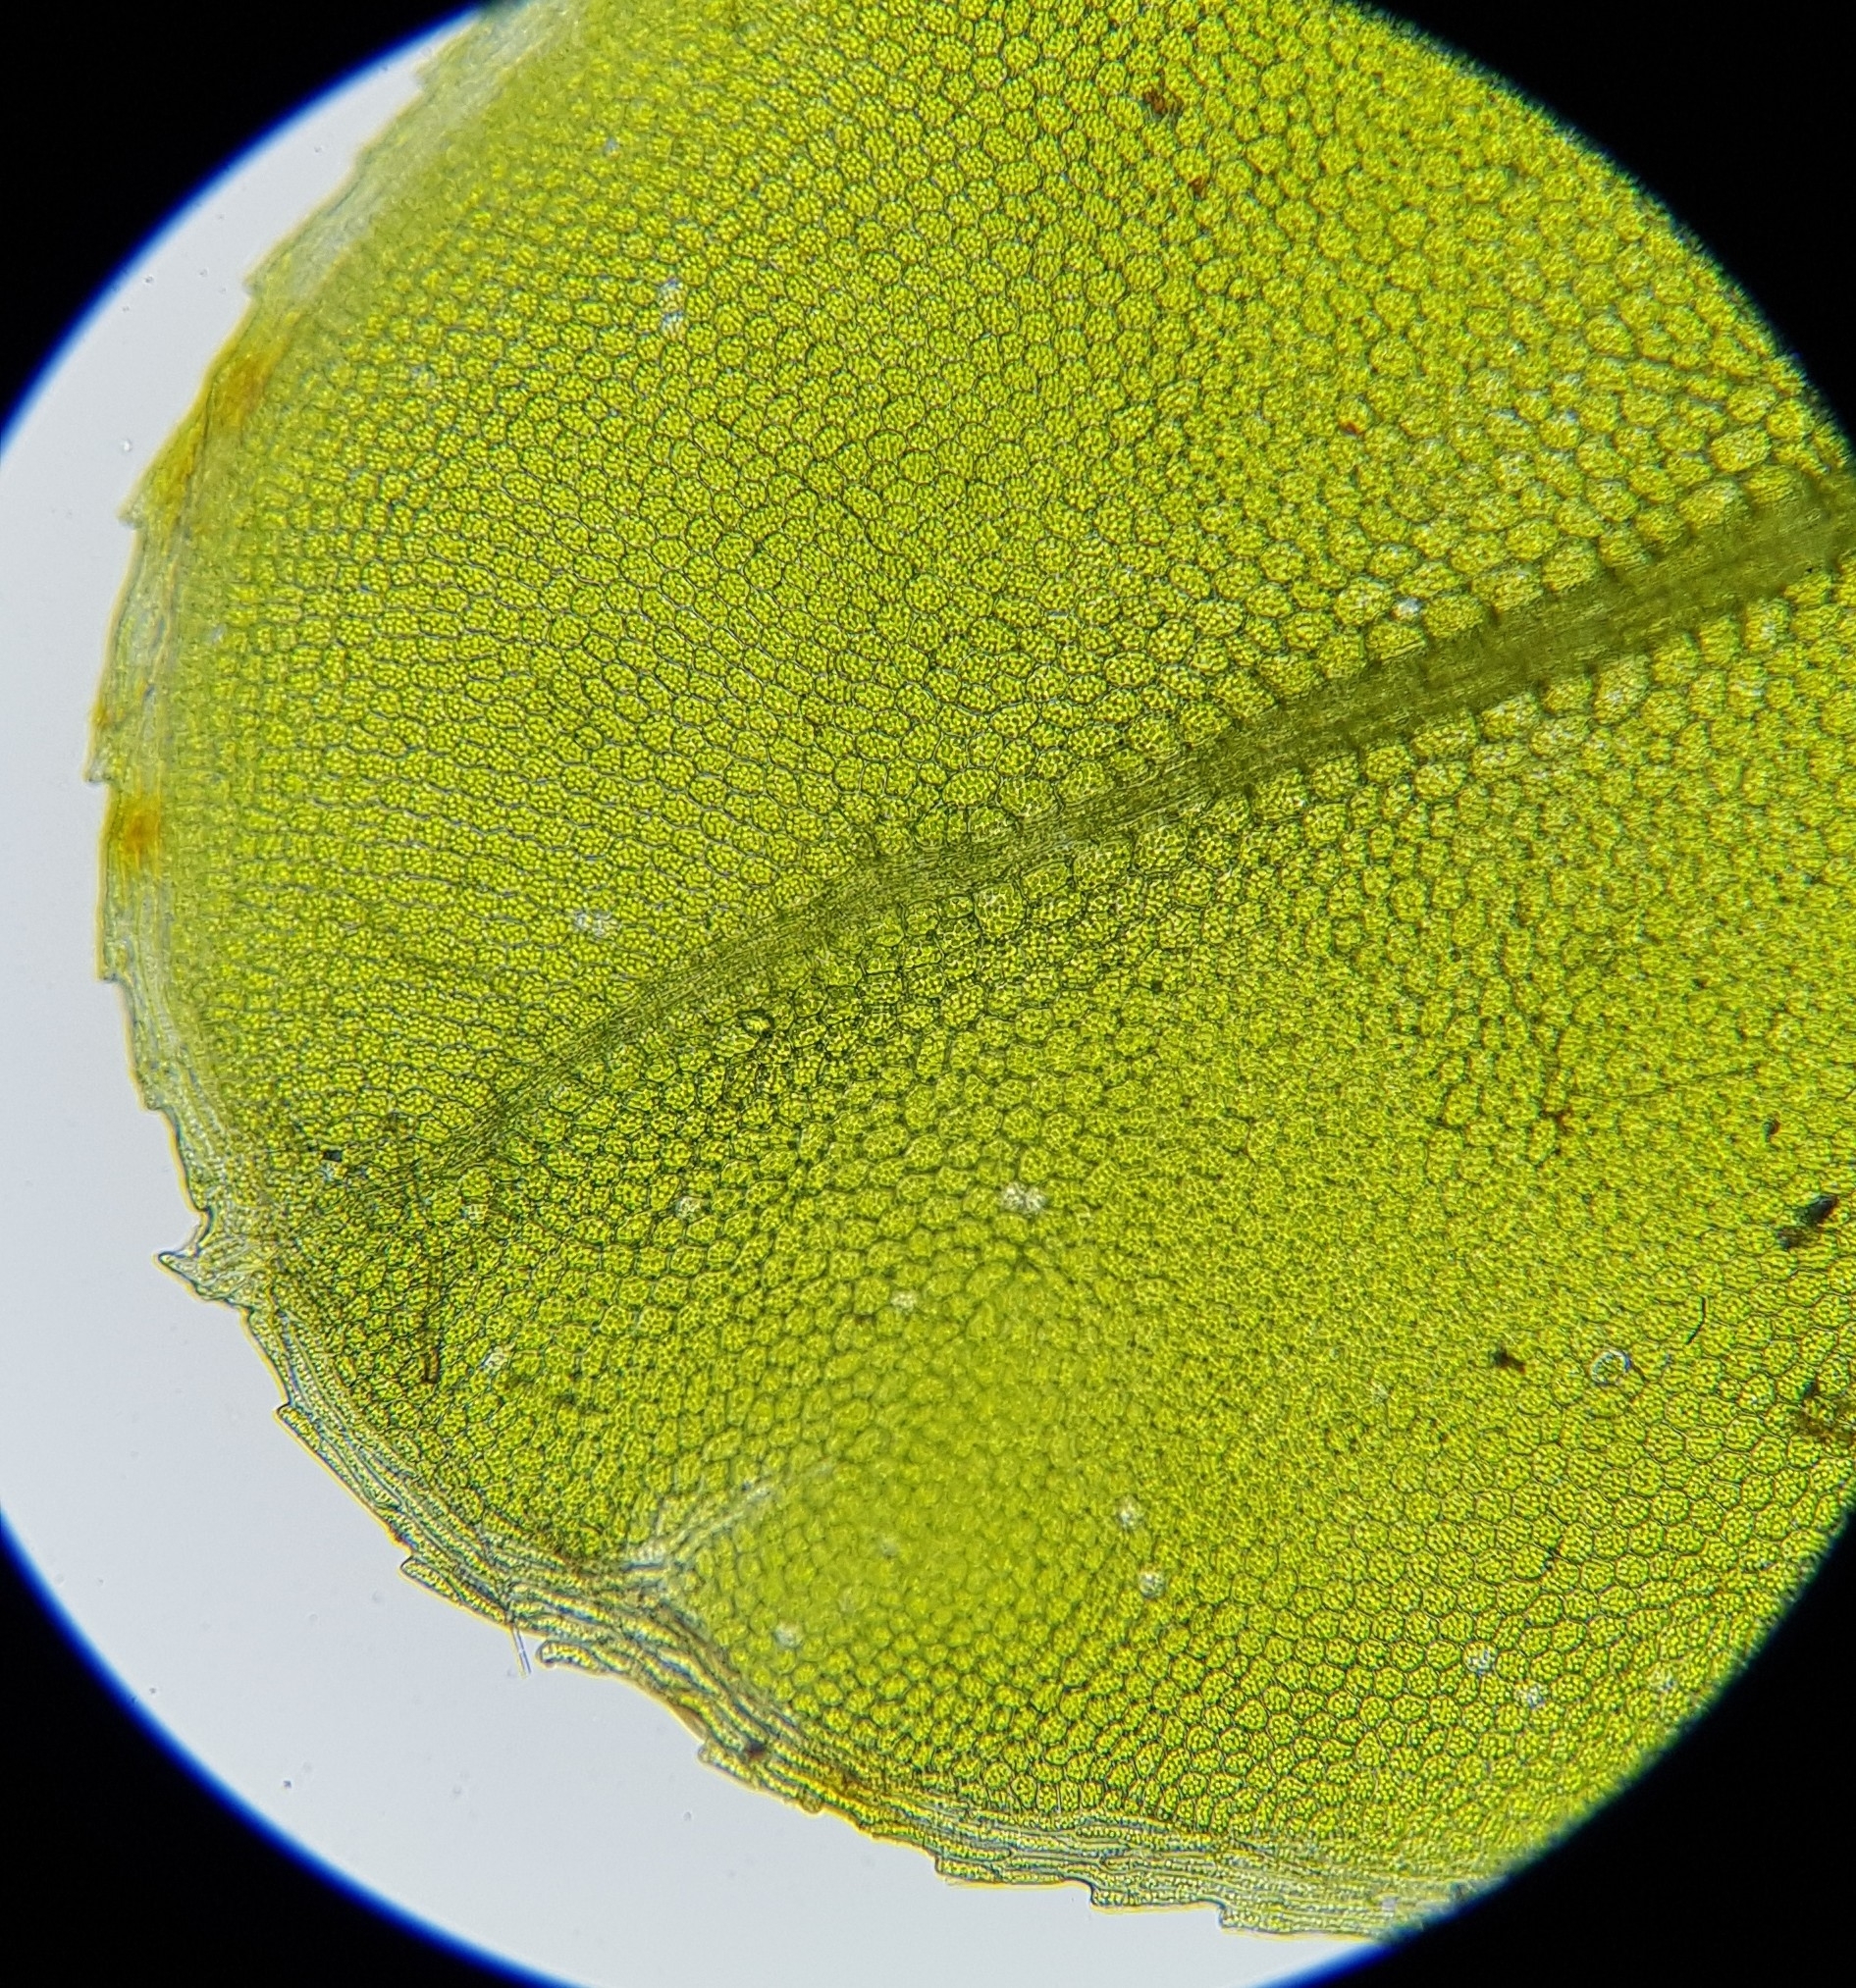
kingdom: Plantae
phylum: Bryophyta
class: Bryopsida
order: Bryales
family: Mniaceae
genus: Plagiomnium
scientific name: Plagiomnium rostratum
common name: Long-beaked leafy moss
